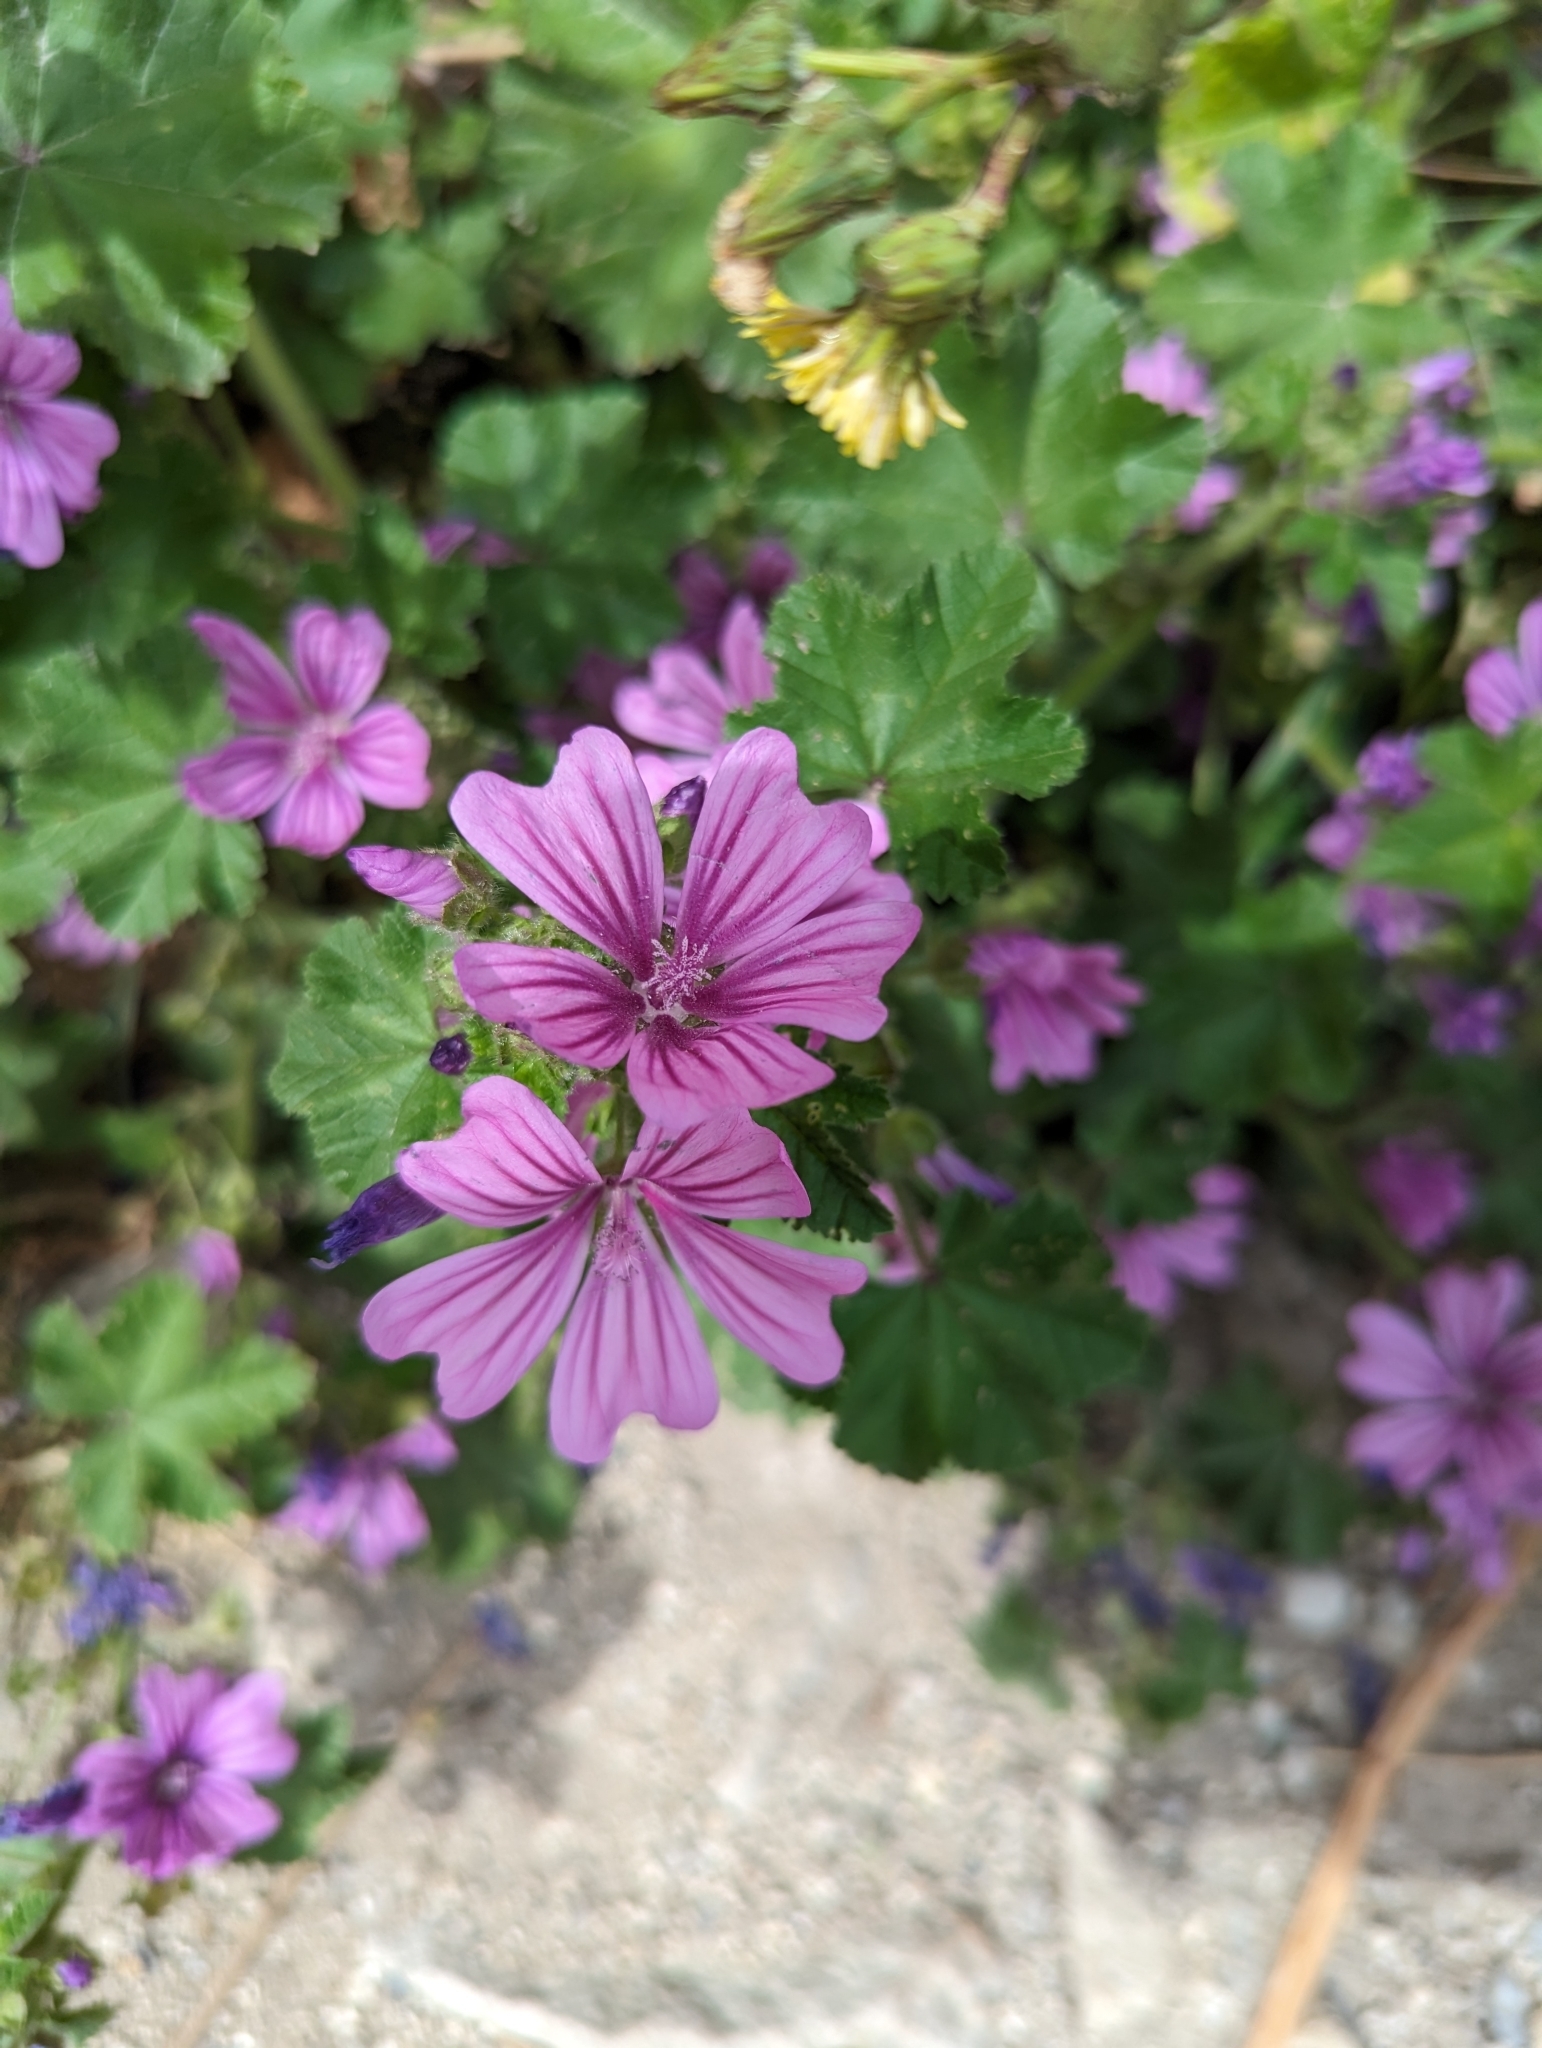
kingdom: Plantae
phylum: Tracheophyta
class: Magnoliopsida
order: Malvales
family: Malvaceae
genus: Malva
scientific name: Malva sylvestris
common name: Common mallow
